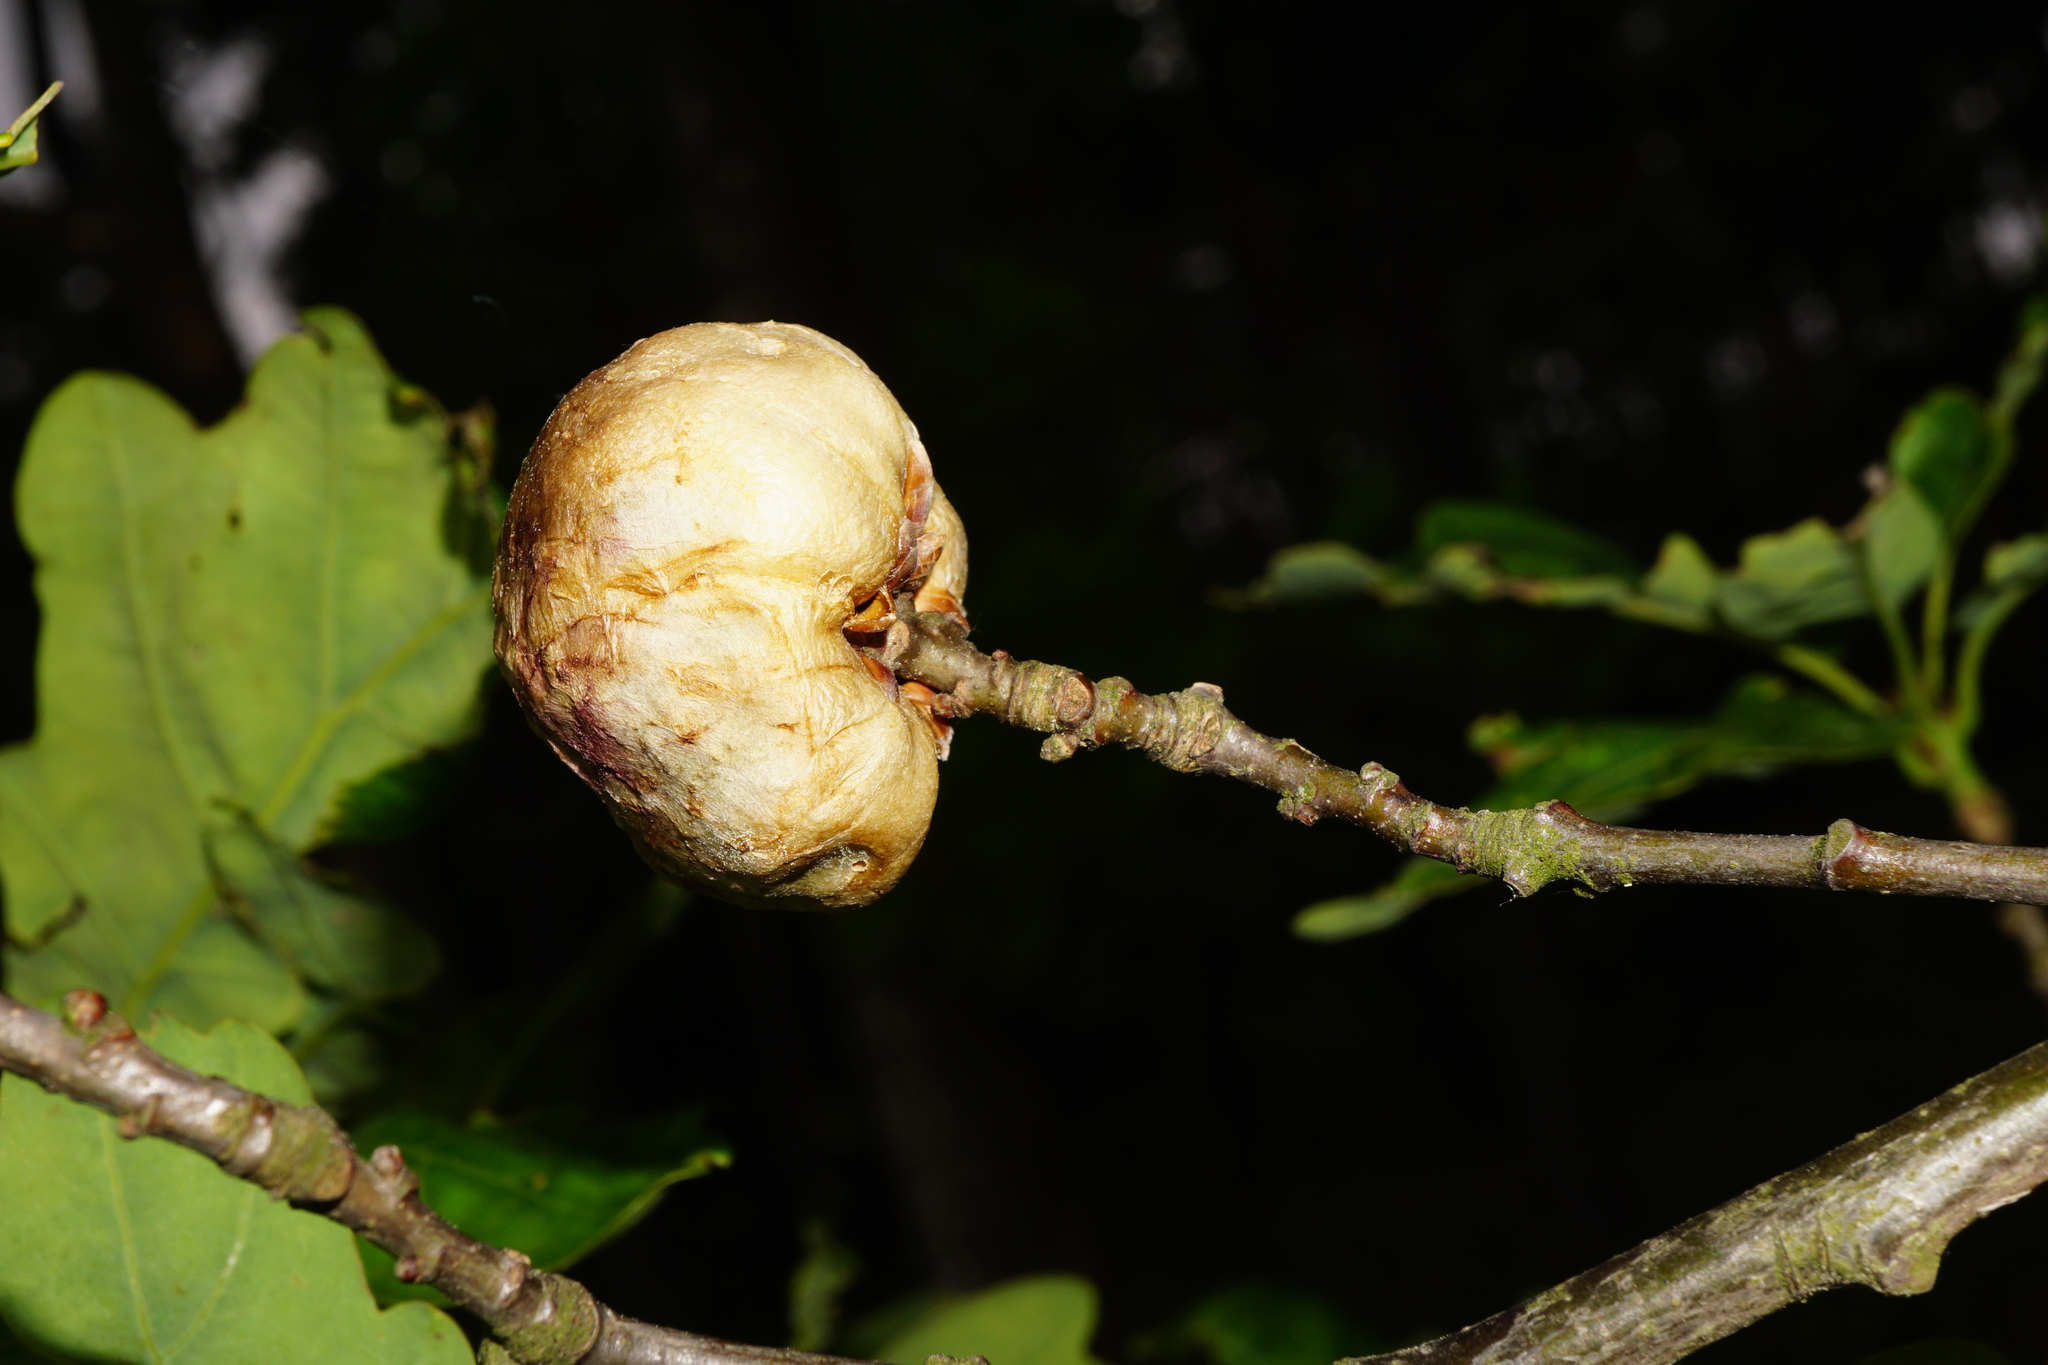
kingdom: Animalia
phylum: Arthropoda
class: Insecta
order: Hymenoptera
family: Cynipidae
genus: Biorhiza
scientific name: Biorhiza pallida
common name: Oak apple
